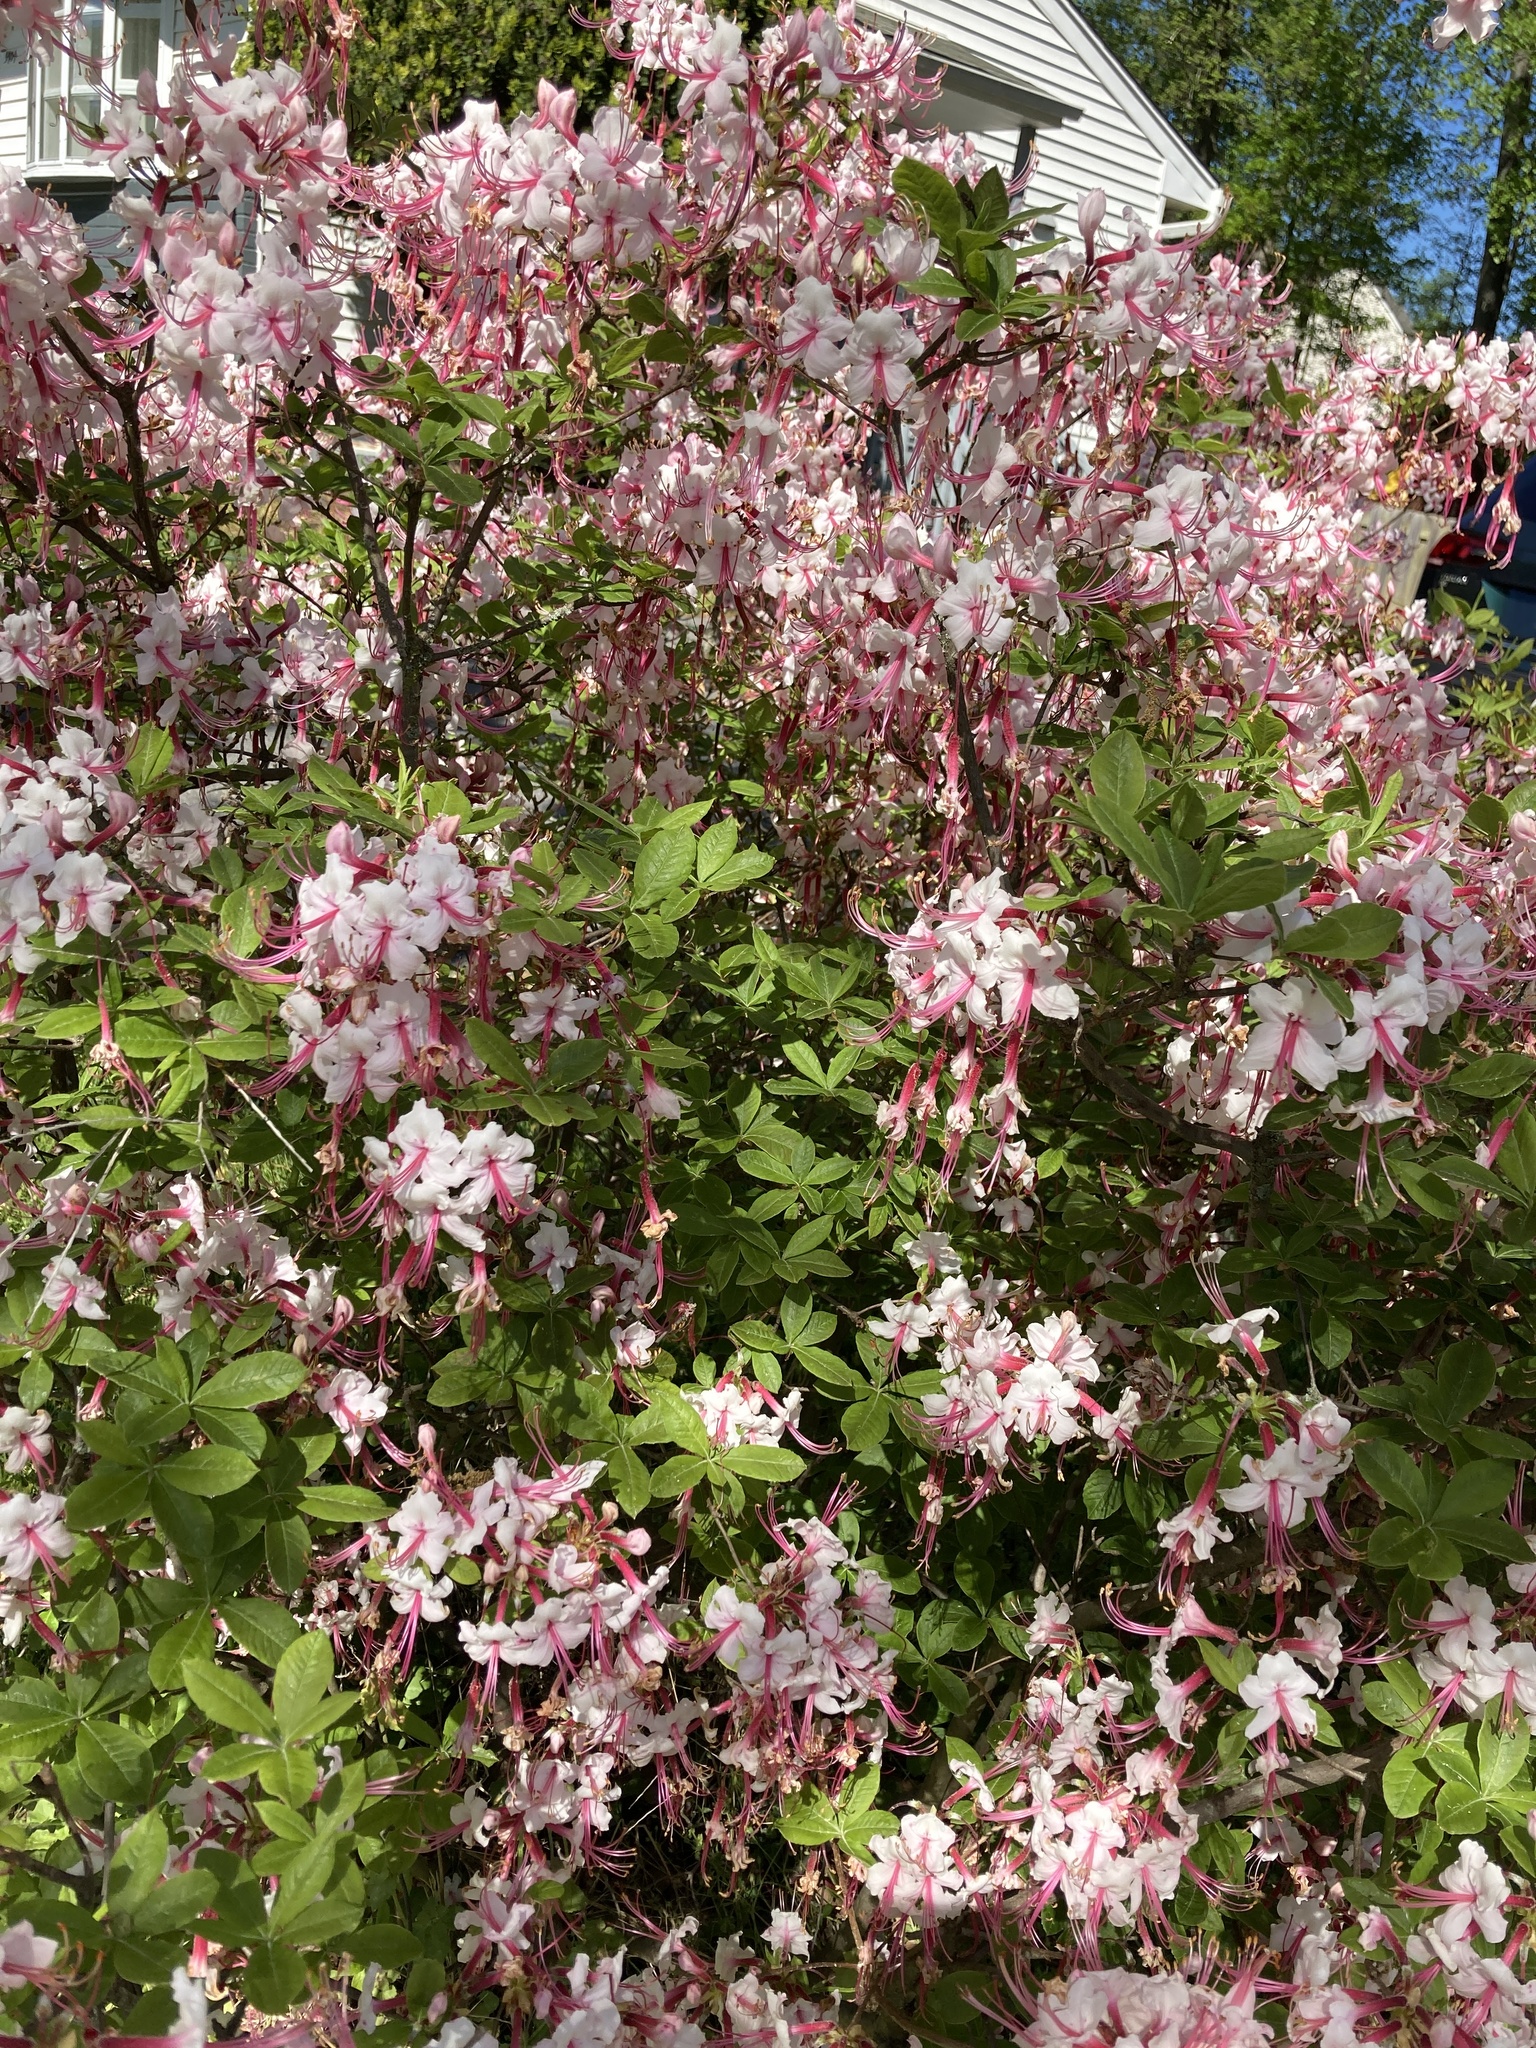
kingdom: Plantae
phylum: Tracheophyta
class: Magnoliopsida
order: Ericales
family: Ericaceae
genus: Rhododendron
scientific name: Rhododendron periclymenoides
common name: Election-pink
